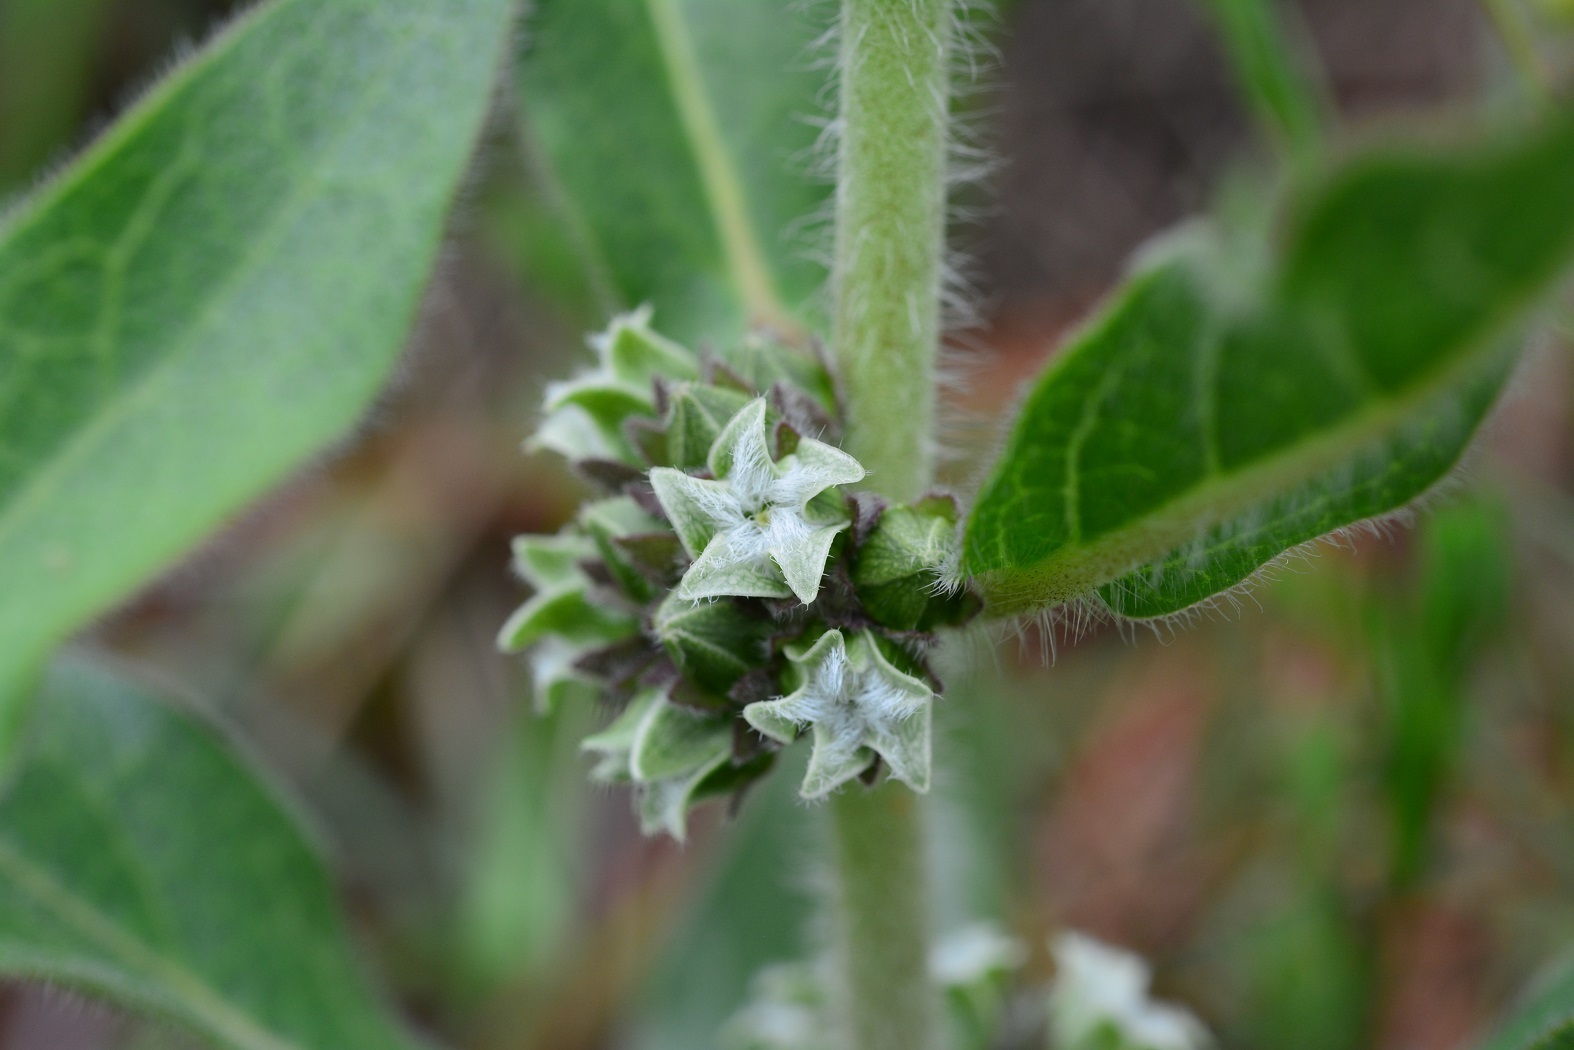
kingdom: Plantae
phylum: Tracheophyta
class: Magnoliopsida
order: Gentianales
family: Apocynaceae
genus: Pherotrichis
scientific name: Pherotrichis villosa
